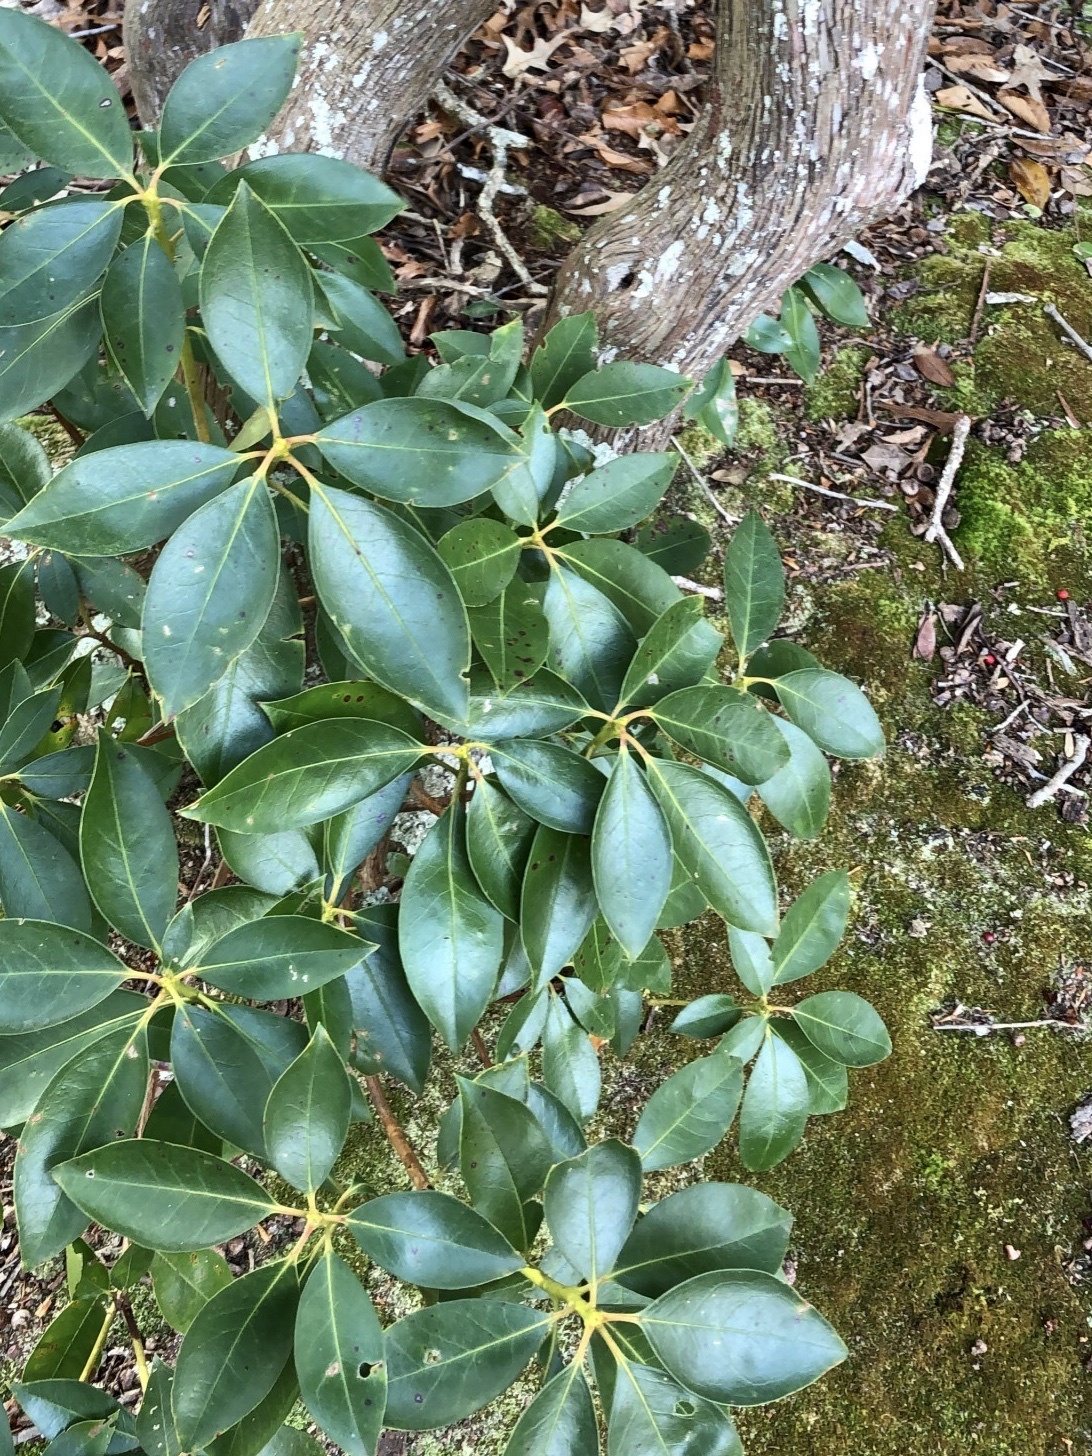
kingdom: Plantae
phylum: Tracheophyta
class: Magnoliopsida
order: Ericales
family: Ericaceae
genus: Kalmia
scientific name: Kalmia latifolia
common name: Mountain-laurel
